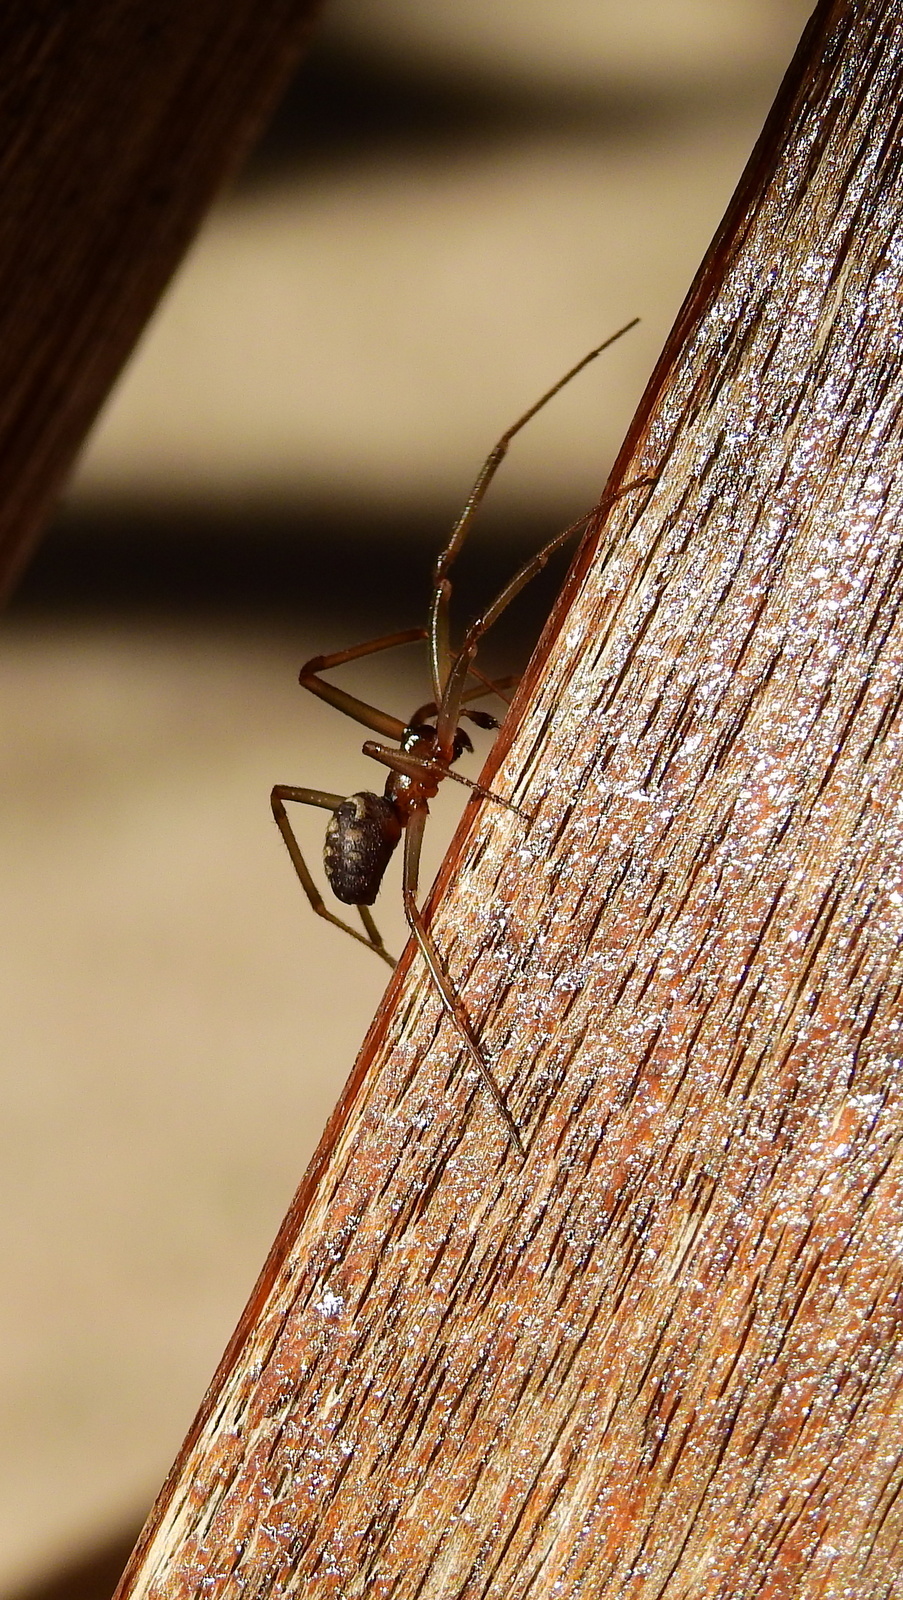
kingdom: Animalia
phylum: Arthropoda
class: Arachnida
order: Araneae
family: Theridiidae
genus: Steatoda
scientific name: Steatoda grossa
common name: False black widow
